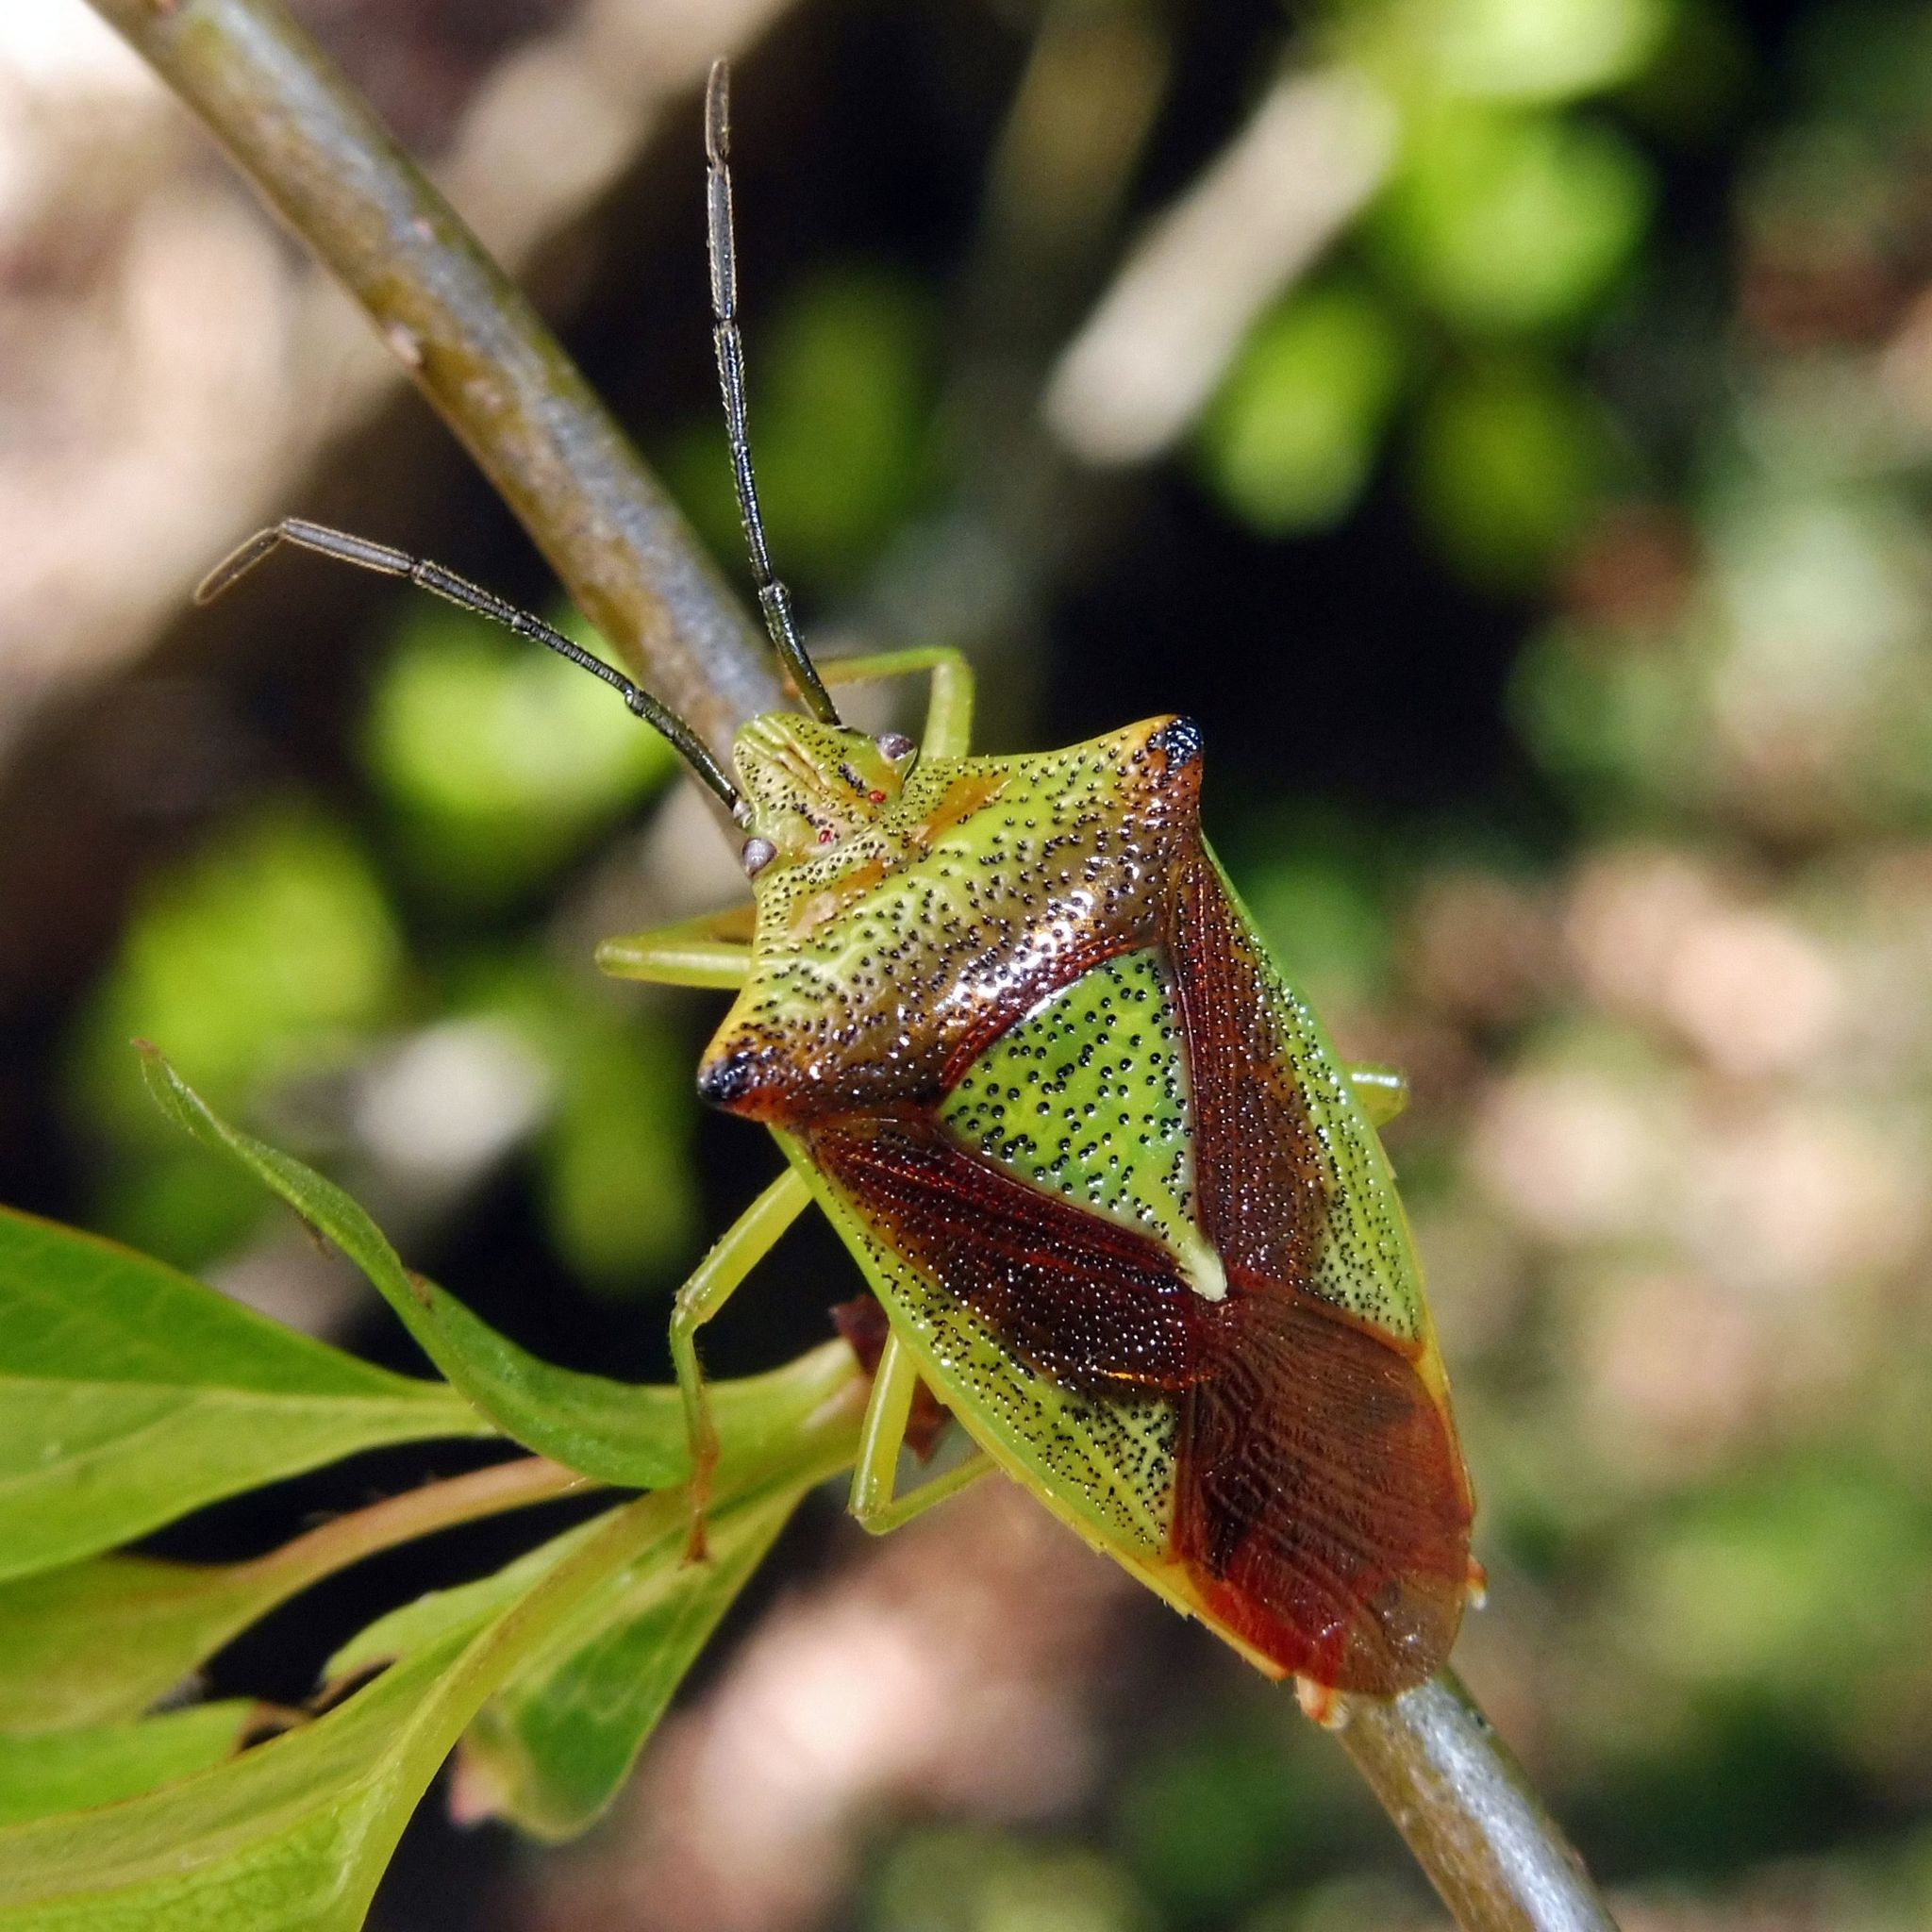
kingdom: Animalia
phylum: Arthropoda
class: Insecta
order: Hemiptera
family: Acanthosomatidae
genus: Acanthosoma
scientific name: Acanthosoma haemorrhoidale
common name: Hawthorn shieldbug
